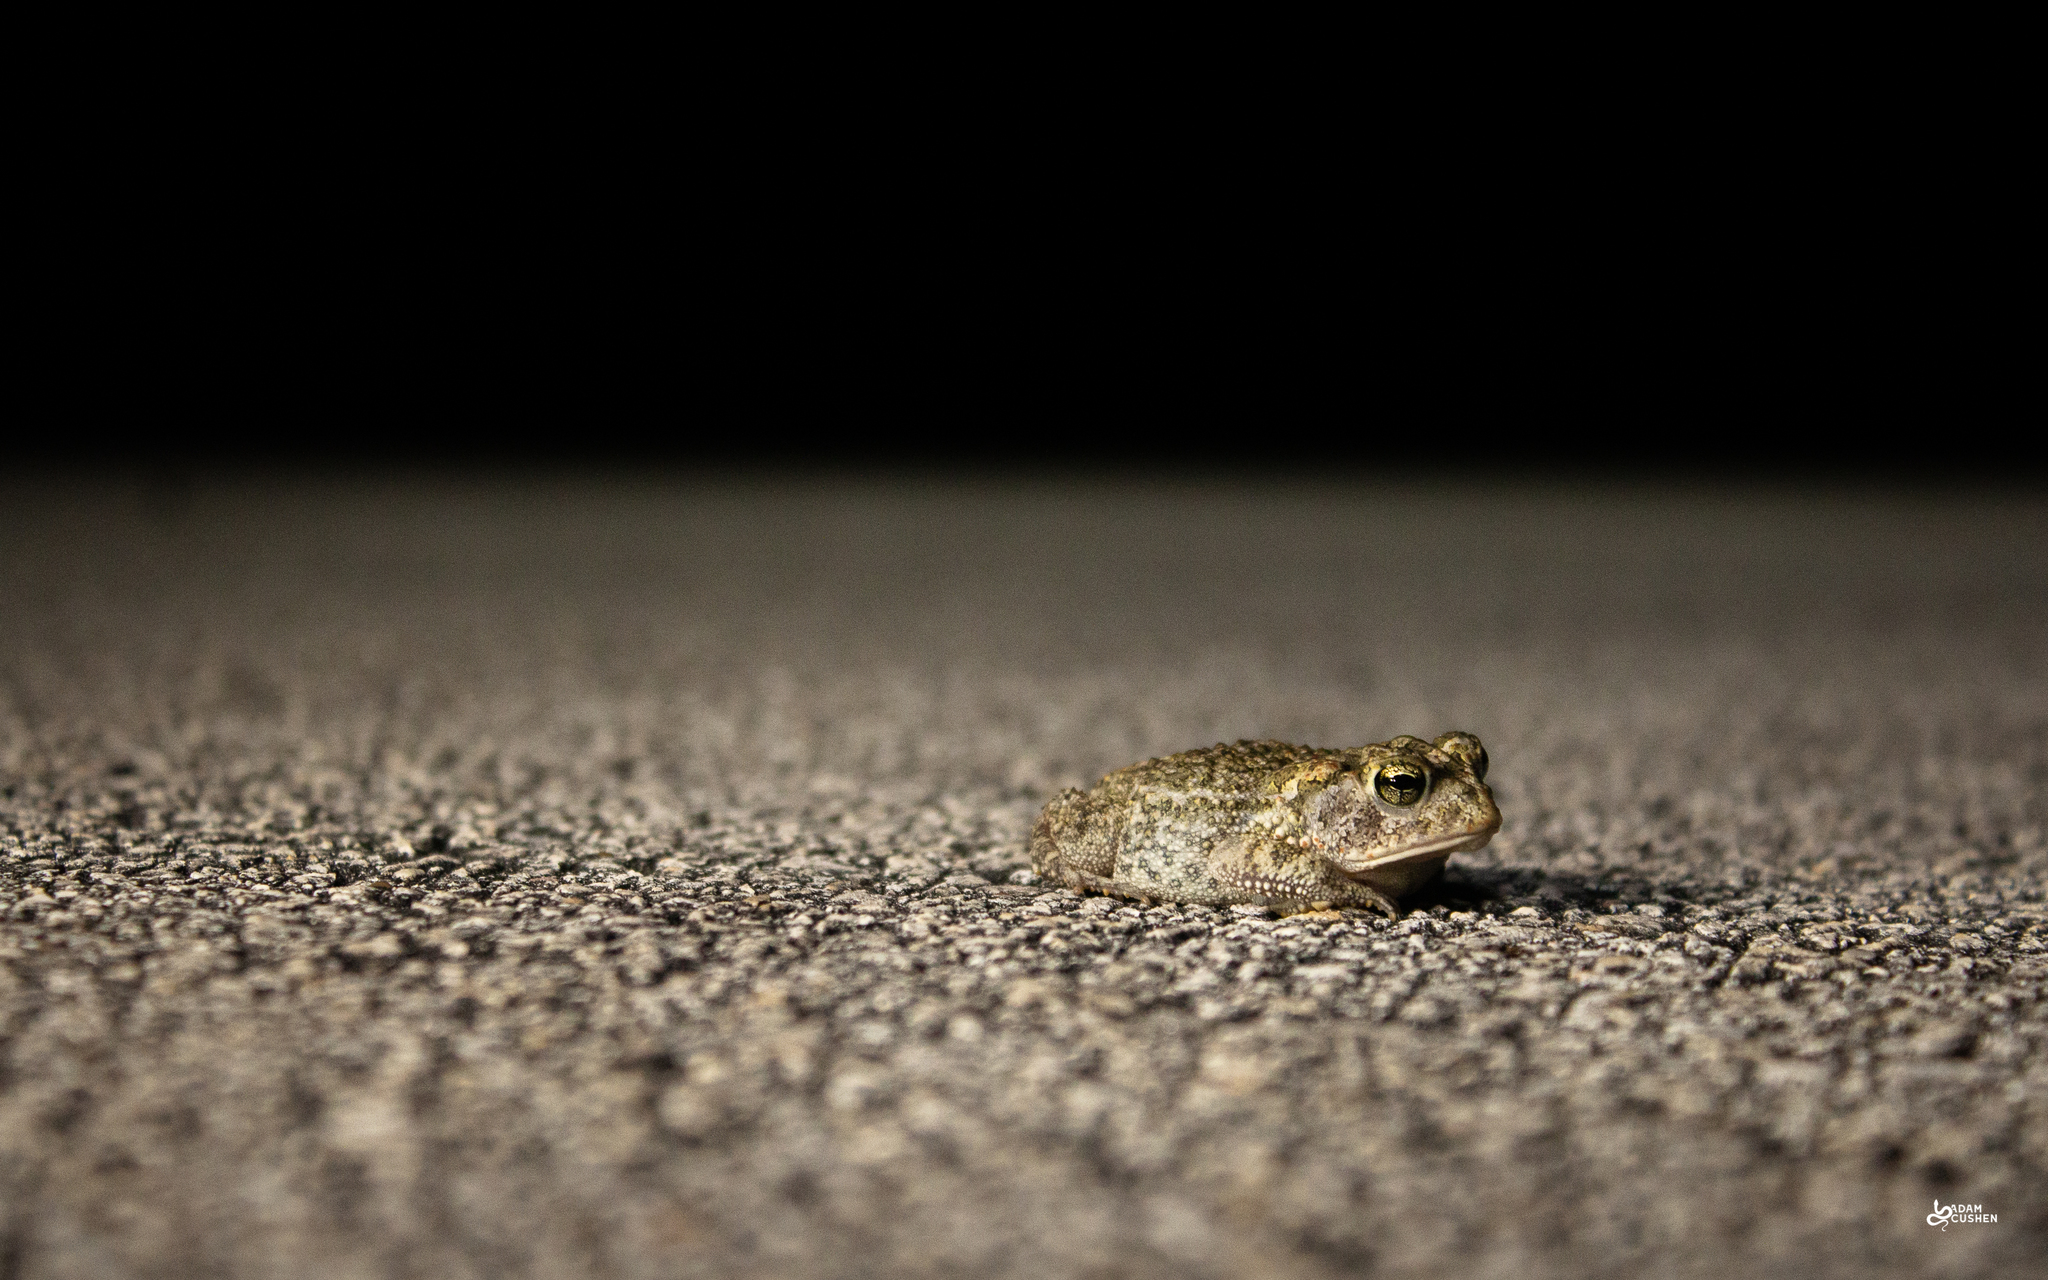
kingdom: Animalia
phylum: Chordata
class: Amphibia
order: Anura
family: Bufonidae
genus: Anaxyrus
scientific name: Anaxyrus terrestris
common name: Southern toad
